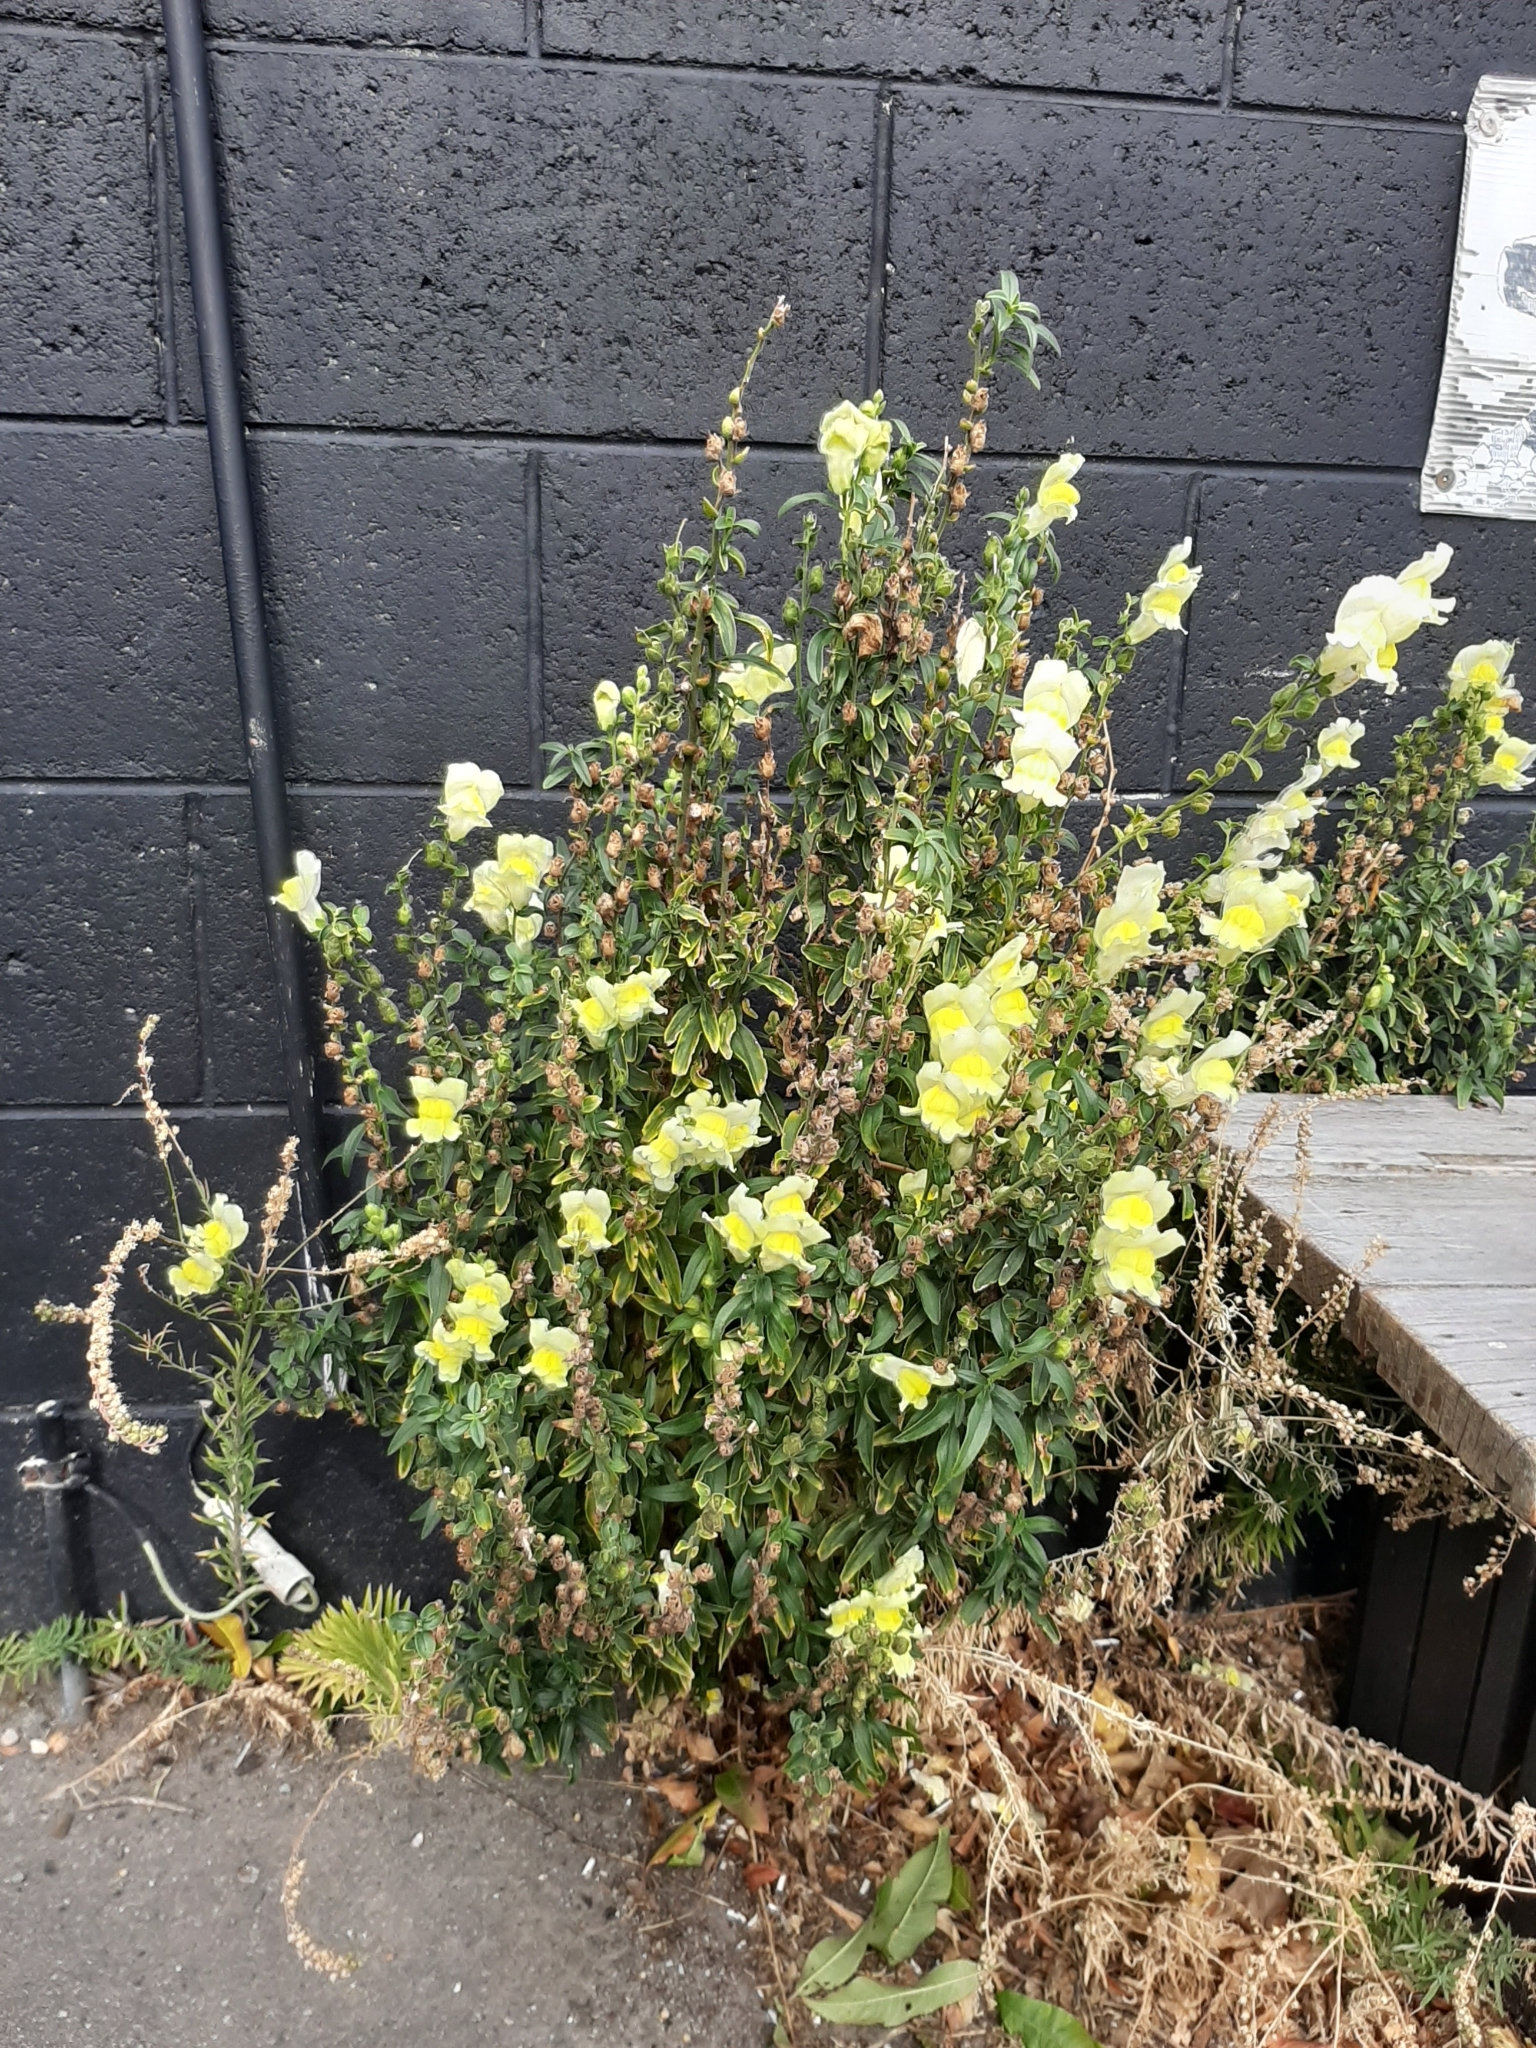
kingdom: Plantae
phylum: Tracheophyta
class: Magnoliopsida
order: Lamiales
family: Plantaginaceae
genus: Antirrhinum
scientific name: Antirrhinum majus
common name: Snapdragon
